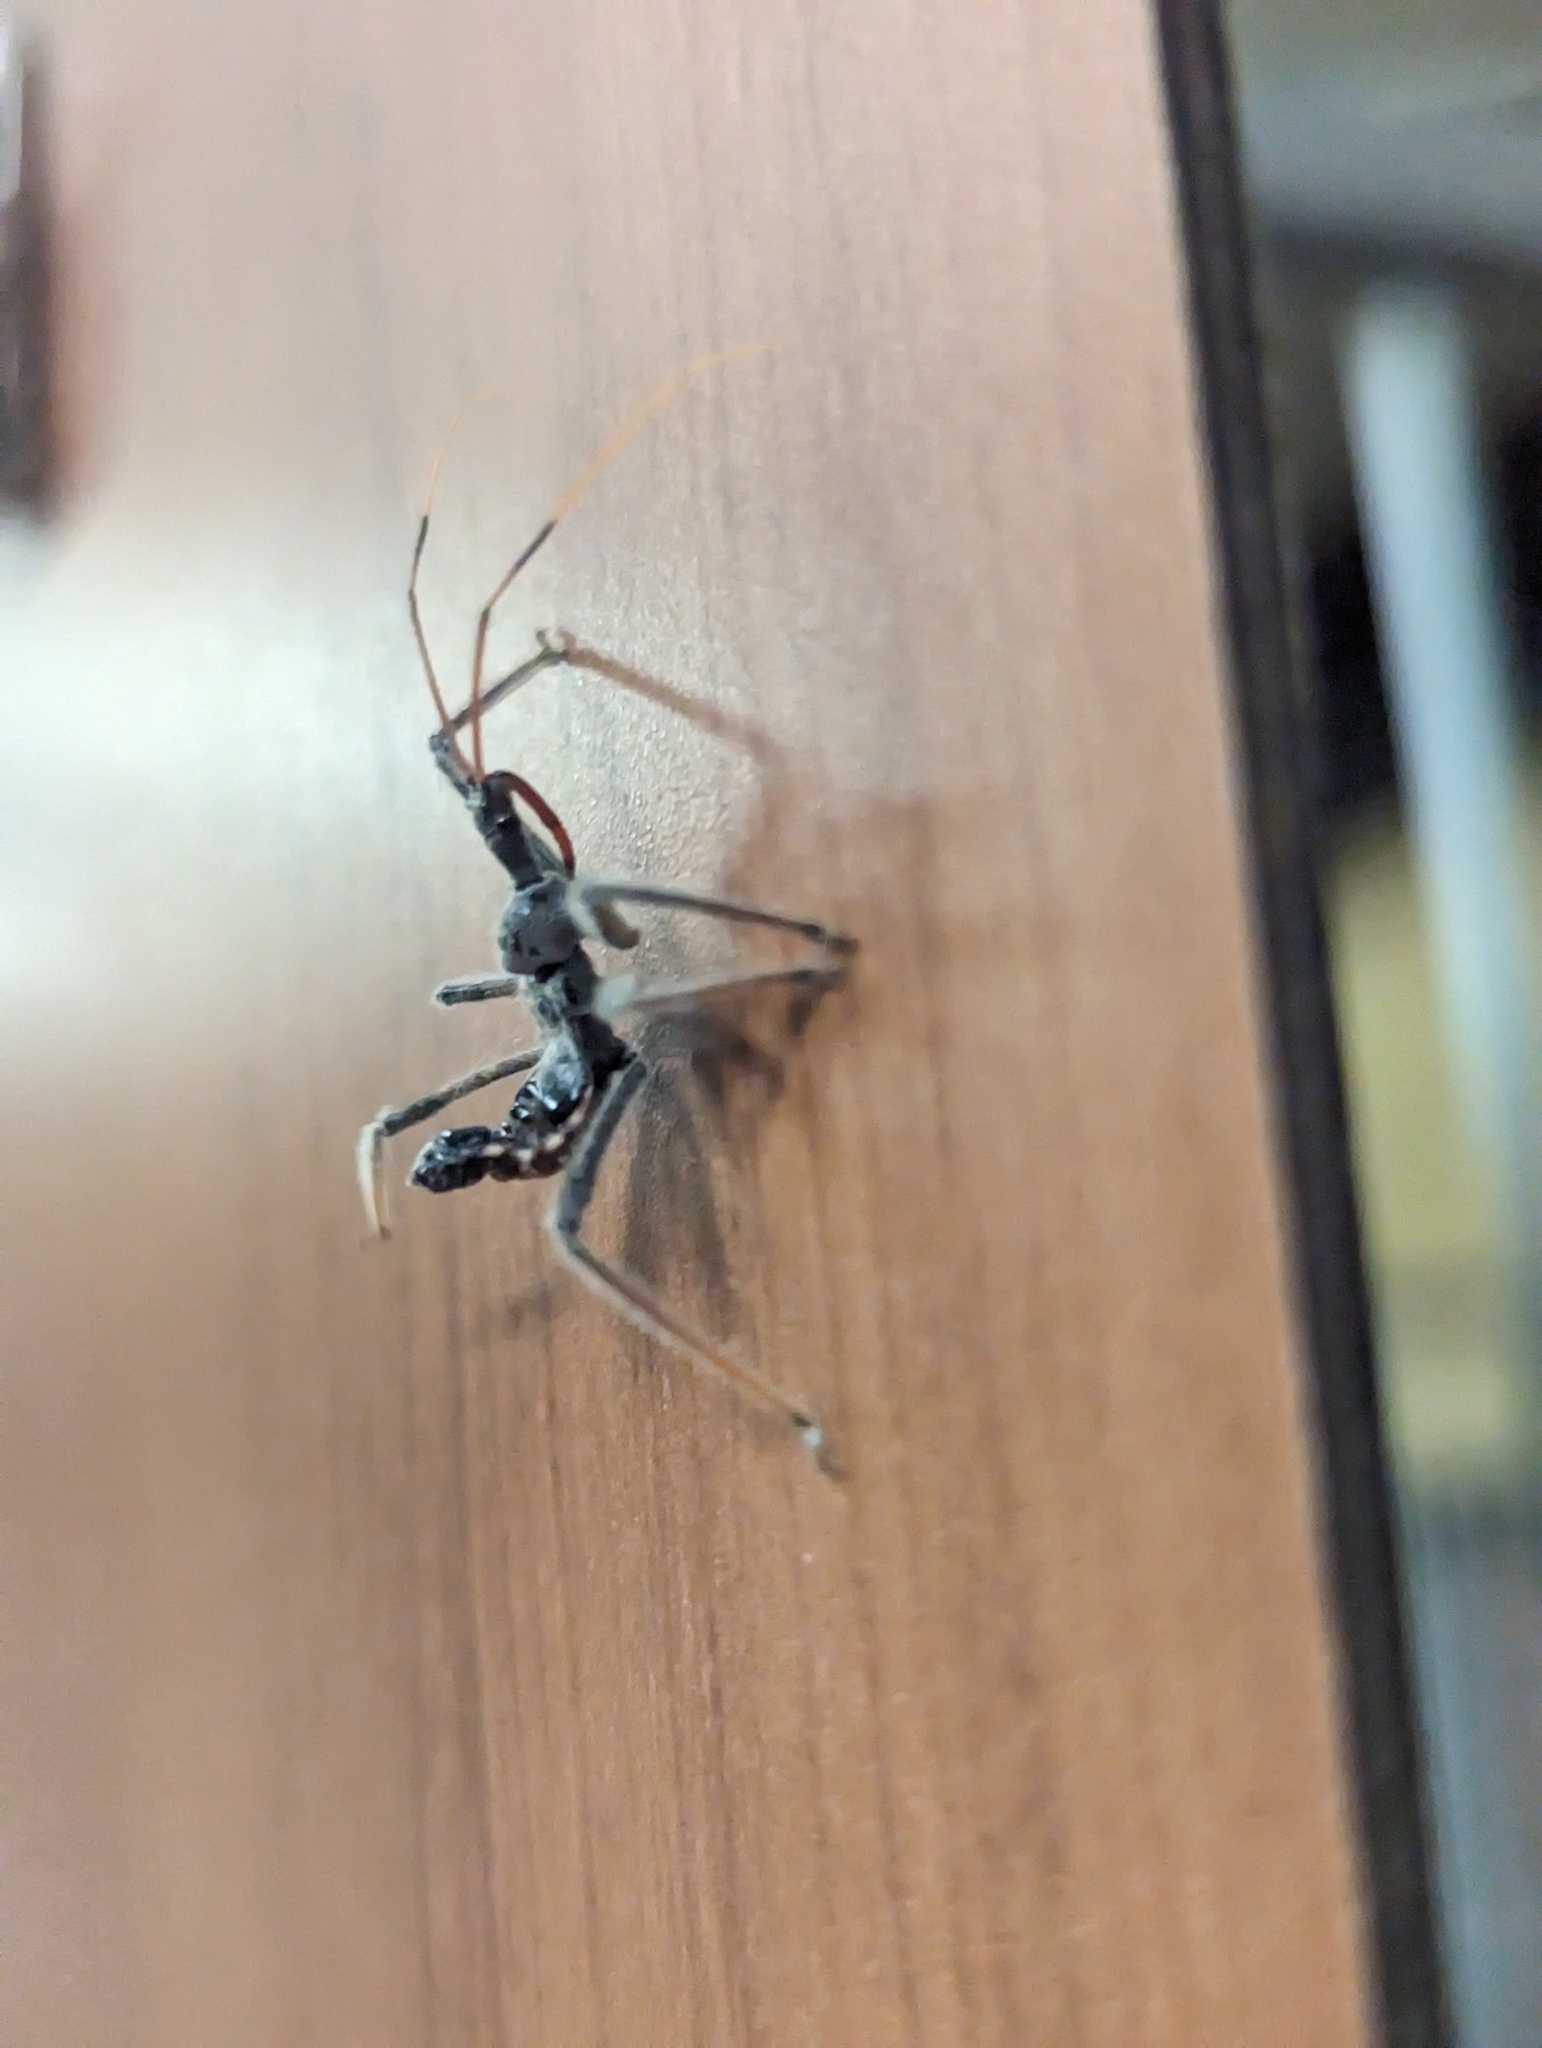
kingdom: Animalia
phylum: Arthropoda
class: Insecta
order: Hemiptera
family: Reduviidae
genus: Arilus
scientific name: Arilus cristatus
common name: North american wheel bug
